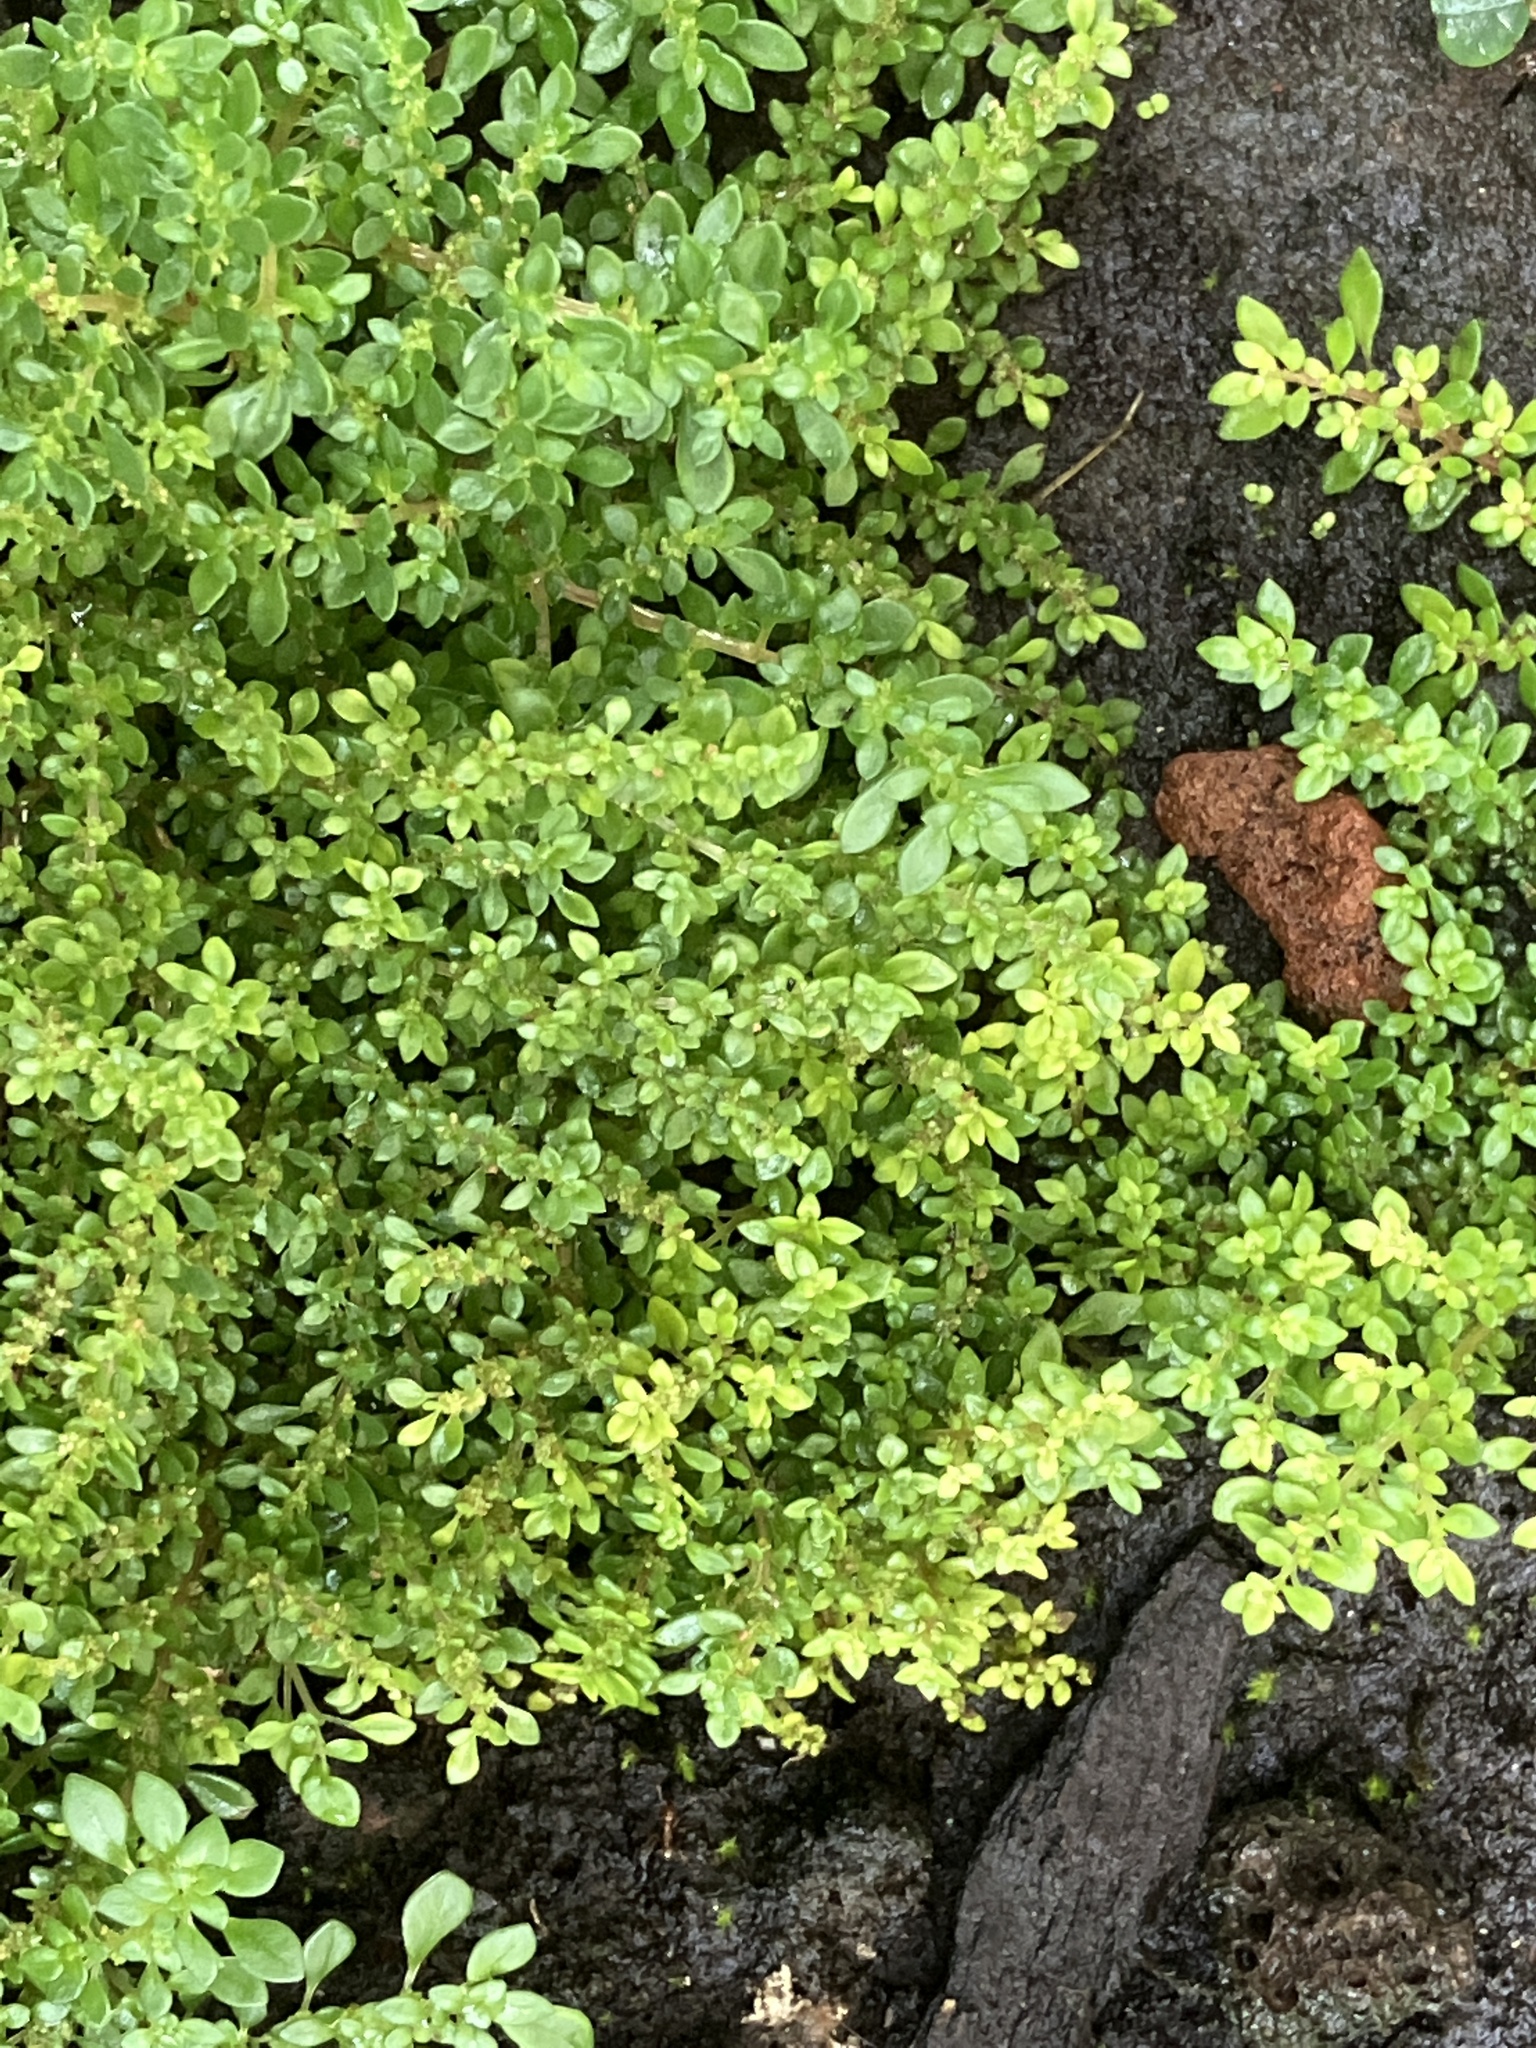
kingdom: Plantae
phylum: Tracheophyta
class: Magnoliopsida
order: Rosales
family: Urticaceae
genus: Pilea
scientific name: Pilea microphylla
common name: Artillery-plant
